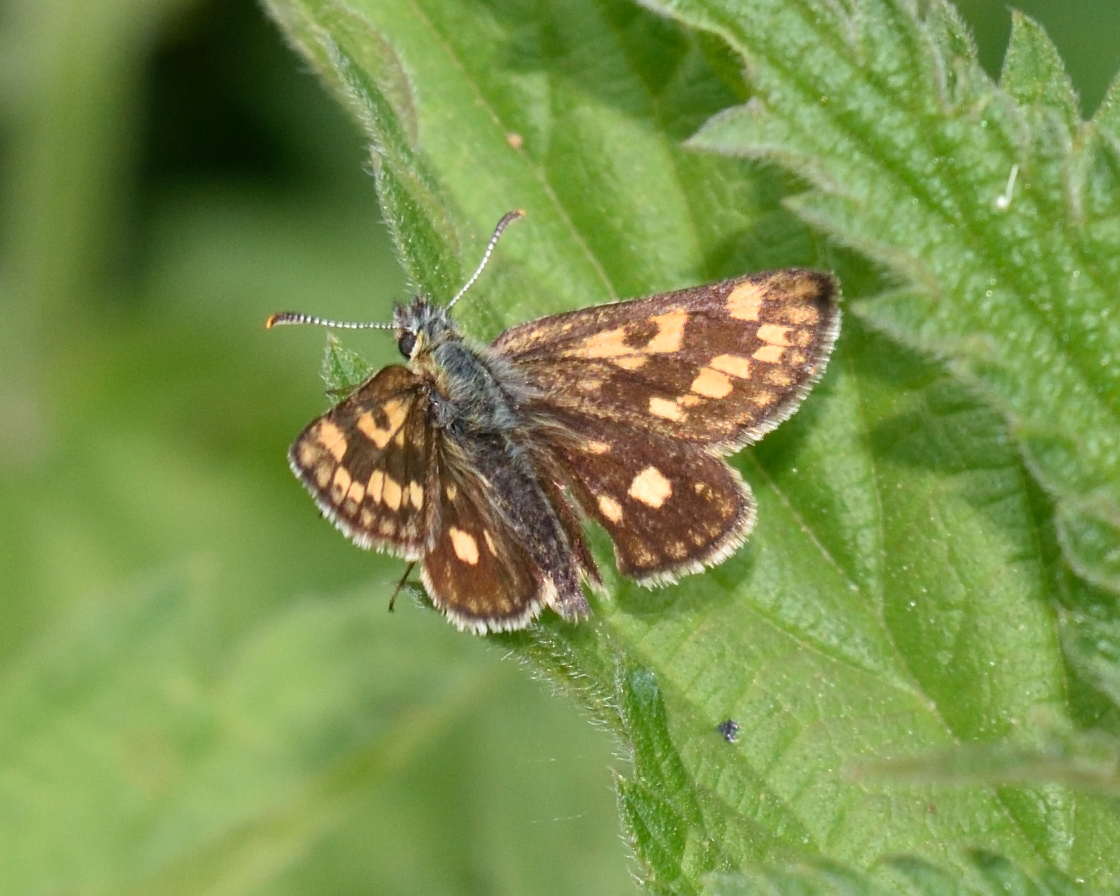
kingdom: Animalia
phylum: Arthropoda
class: Insecta
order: Lepidoptera
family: Hesperiidae
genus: Carterocephalus
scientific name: Carterocephalus palaemon
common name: Chequered skipper
